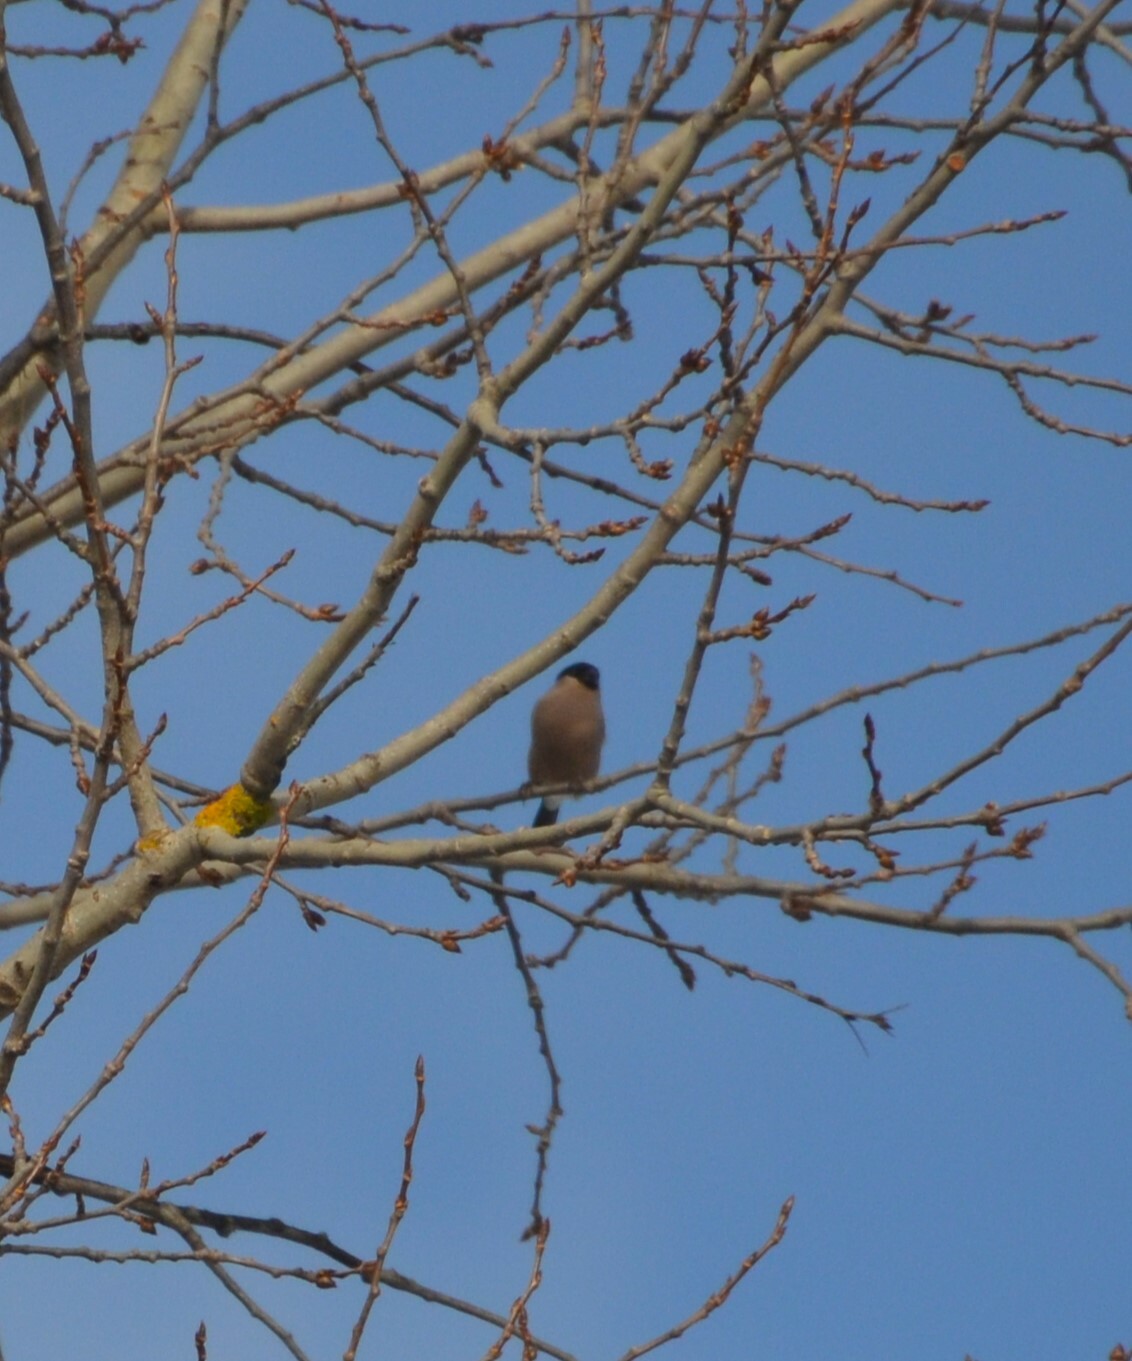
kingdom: Animalia
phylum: Chordata
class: Aves
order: Passeriformes
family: Fringillidae
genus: Pyrrhula
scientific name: Pyrrhula pyrrhula
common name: Eurasian bullfinch
